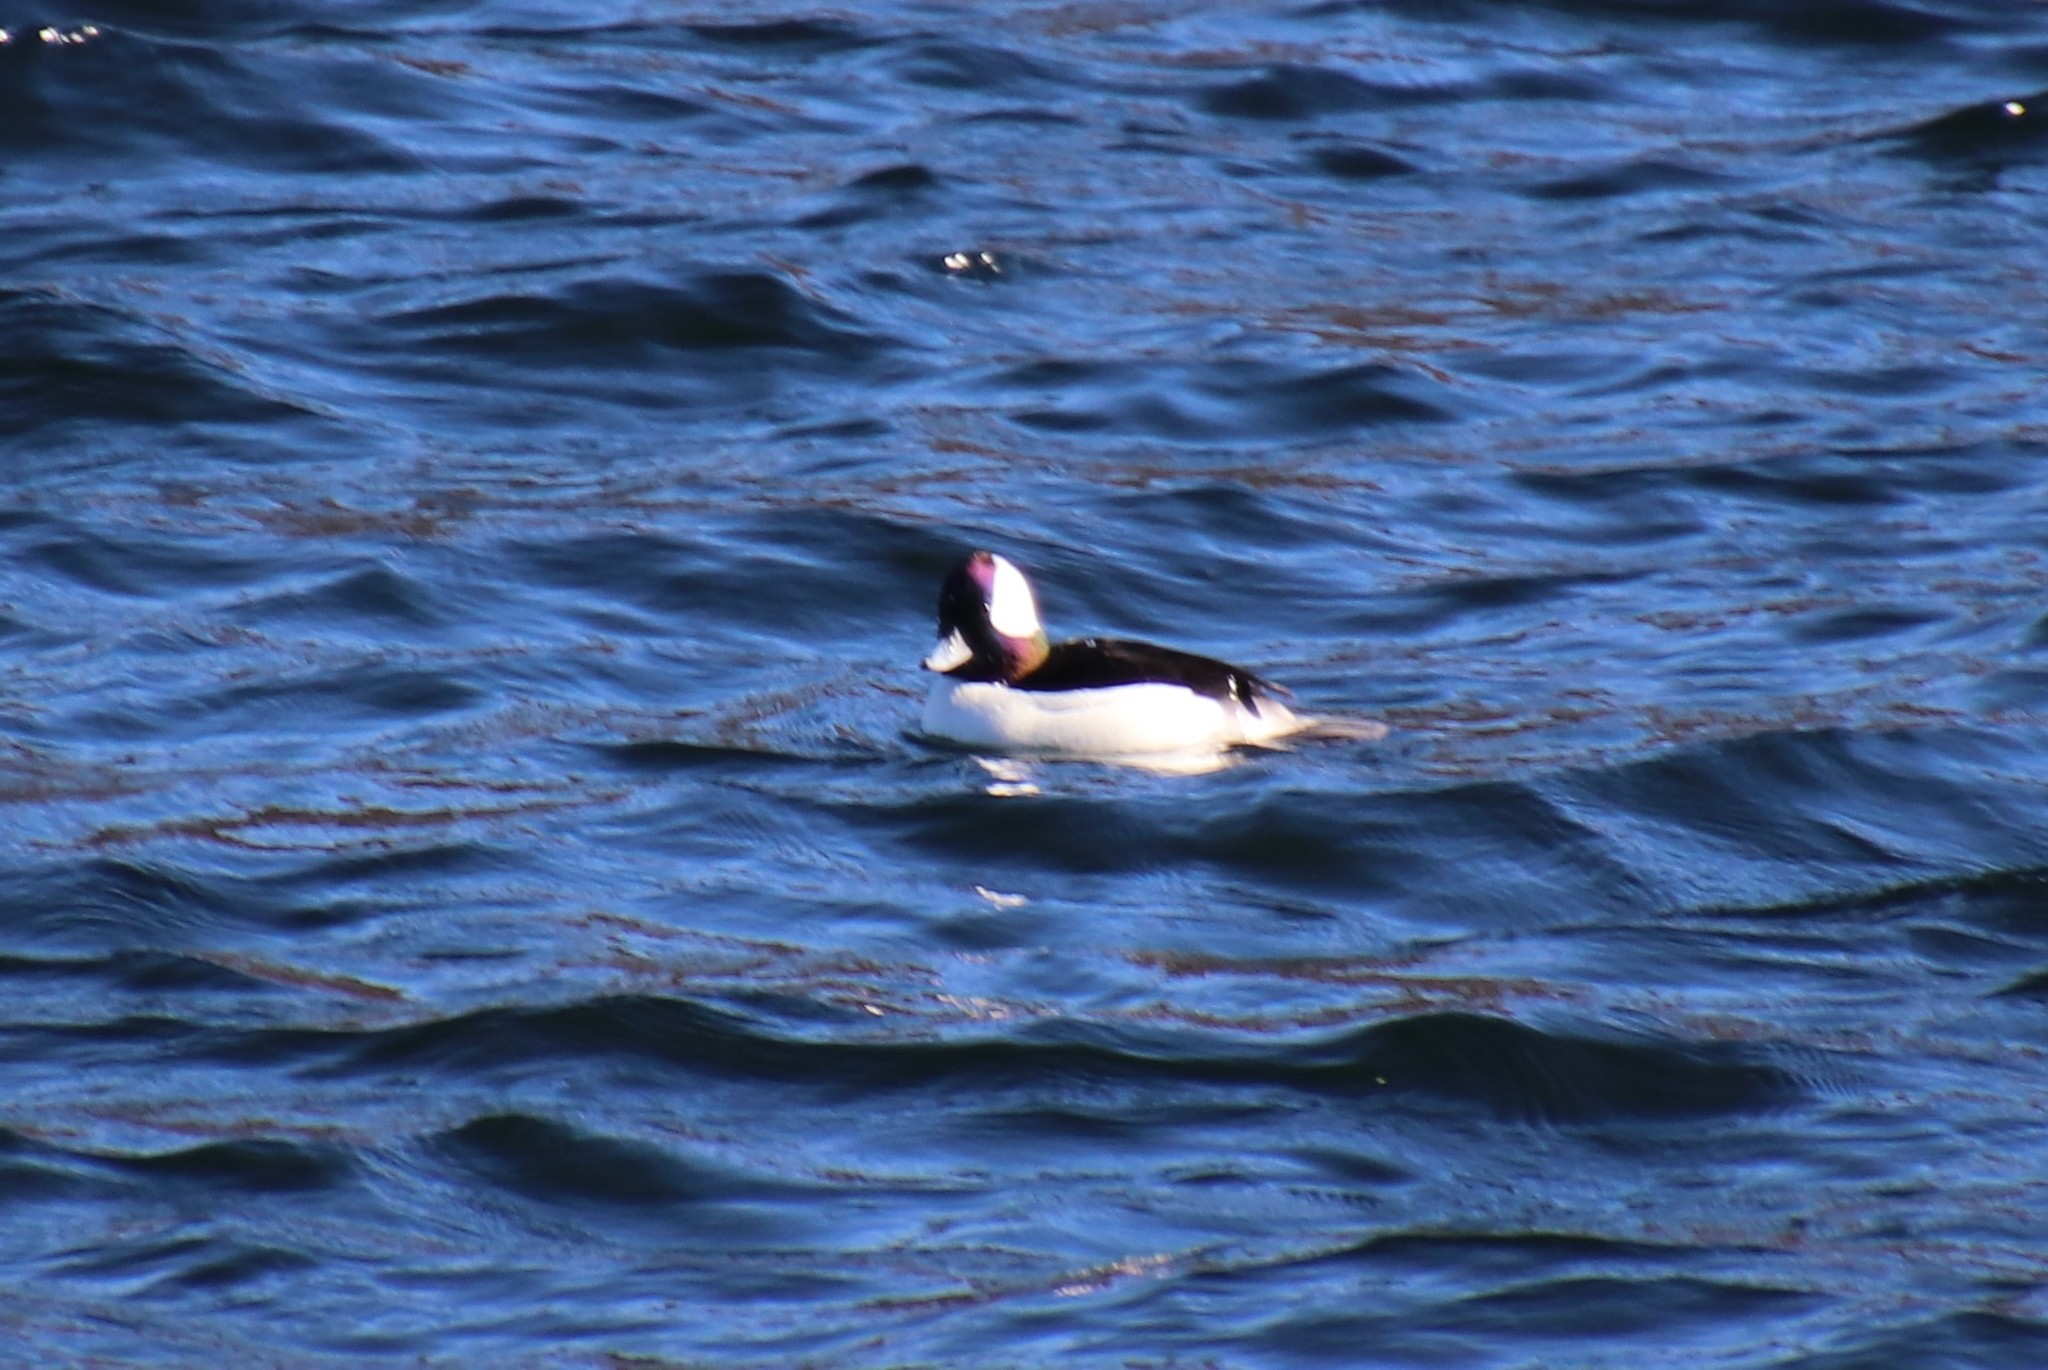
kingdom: Animalia
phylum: Chordata
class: Aves
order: Anseriformes
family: Anatidae
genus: Bucephala
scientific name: Bucephala albeola
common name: Bufflehead
